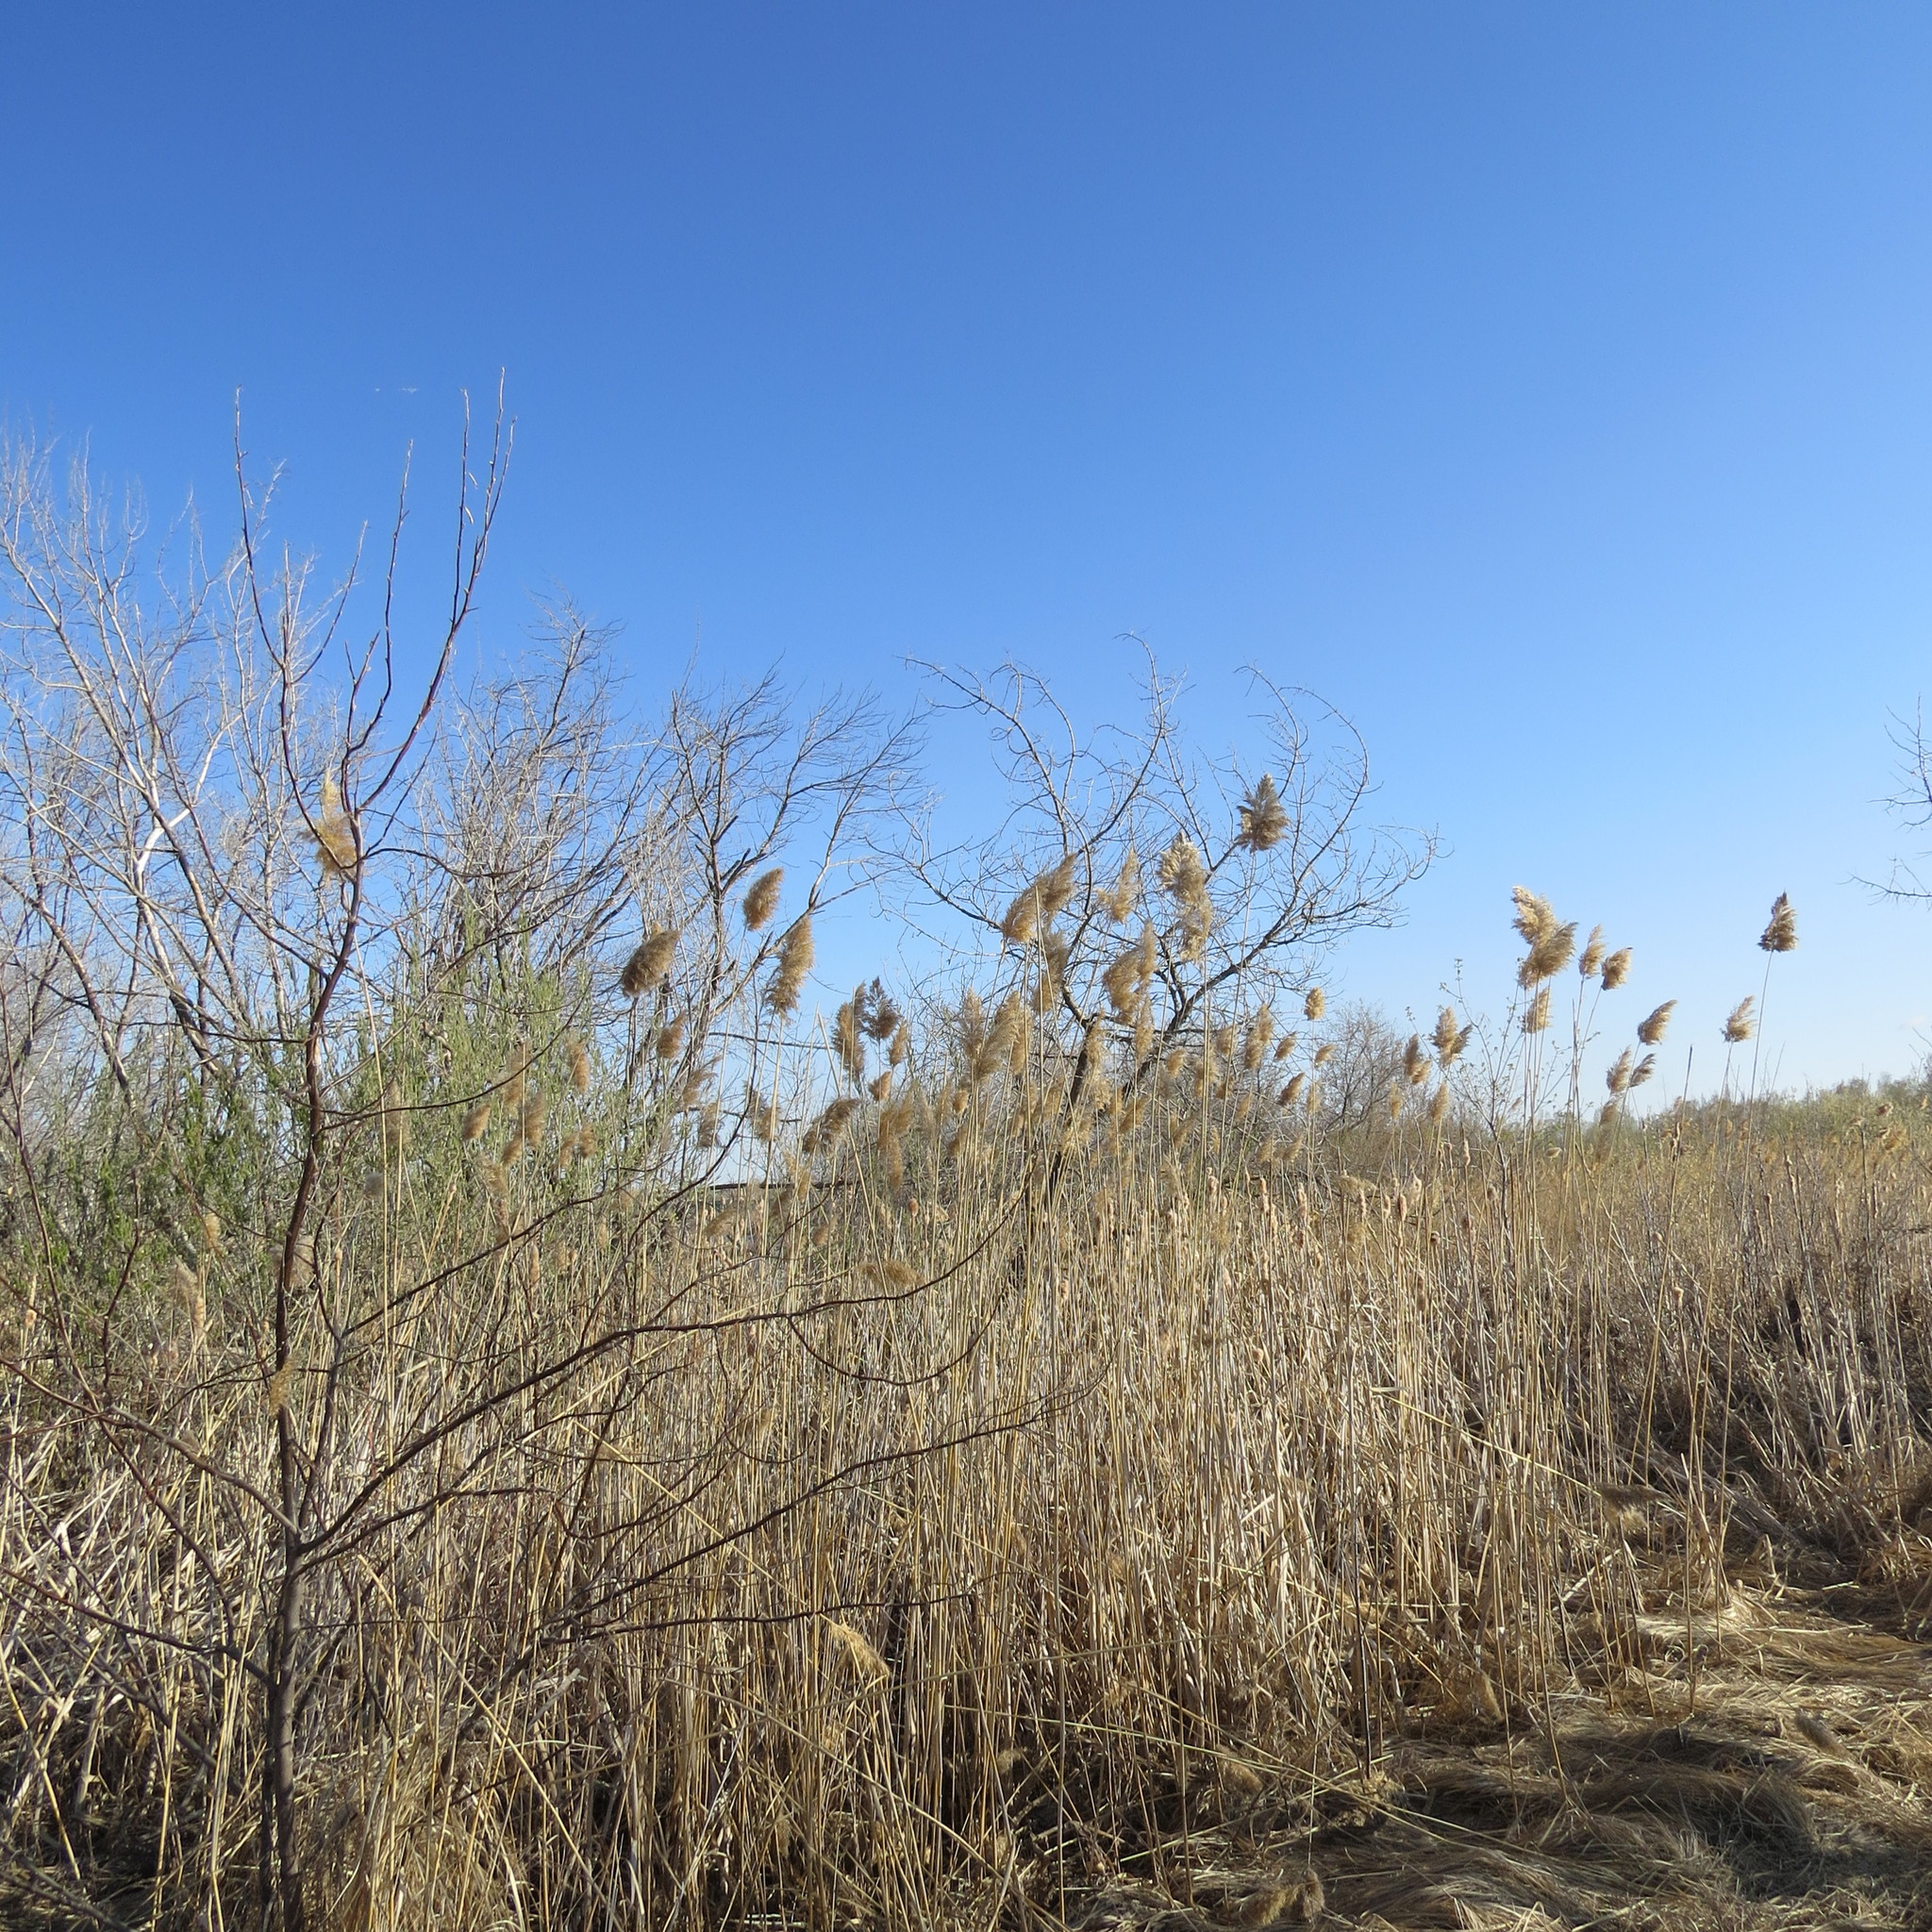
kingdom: Plantae
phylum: Tracheophyta
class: Liliopsida
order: Poales
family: Poaceae
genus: Phragmites
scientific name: Phragmites australis
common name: Common reed
